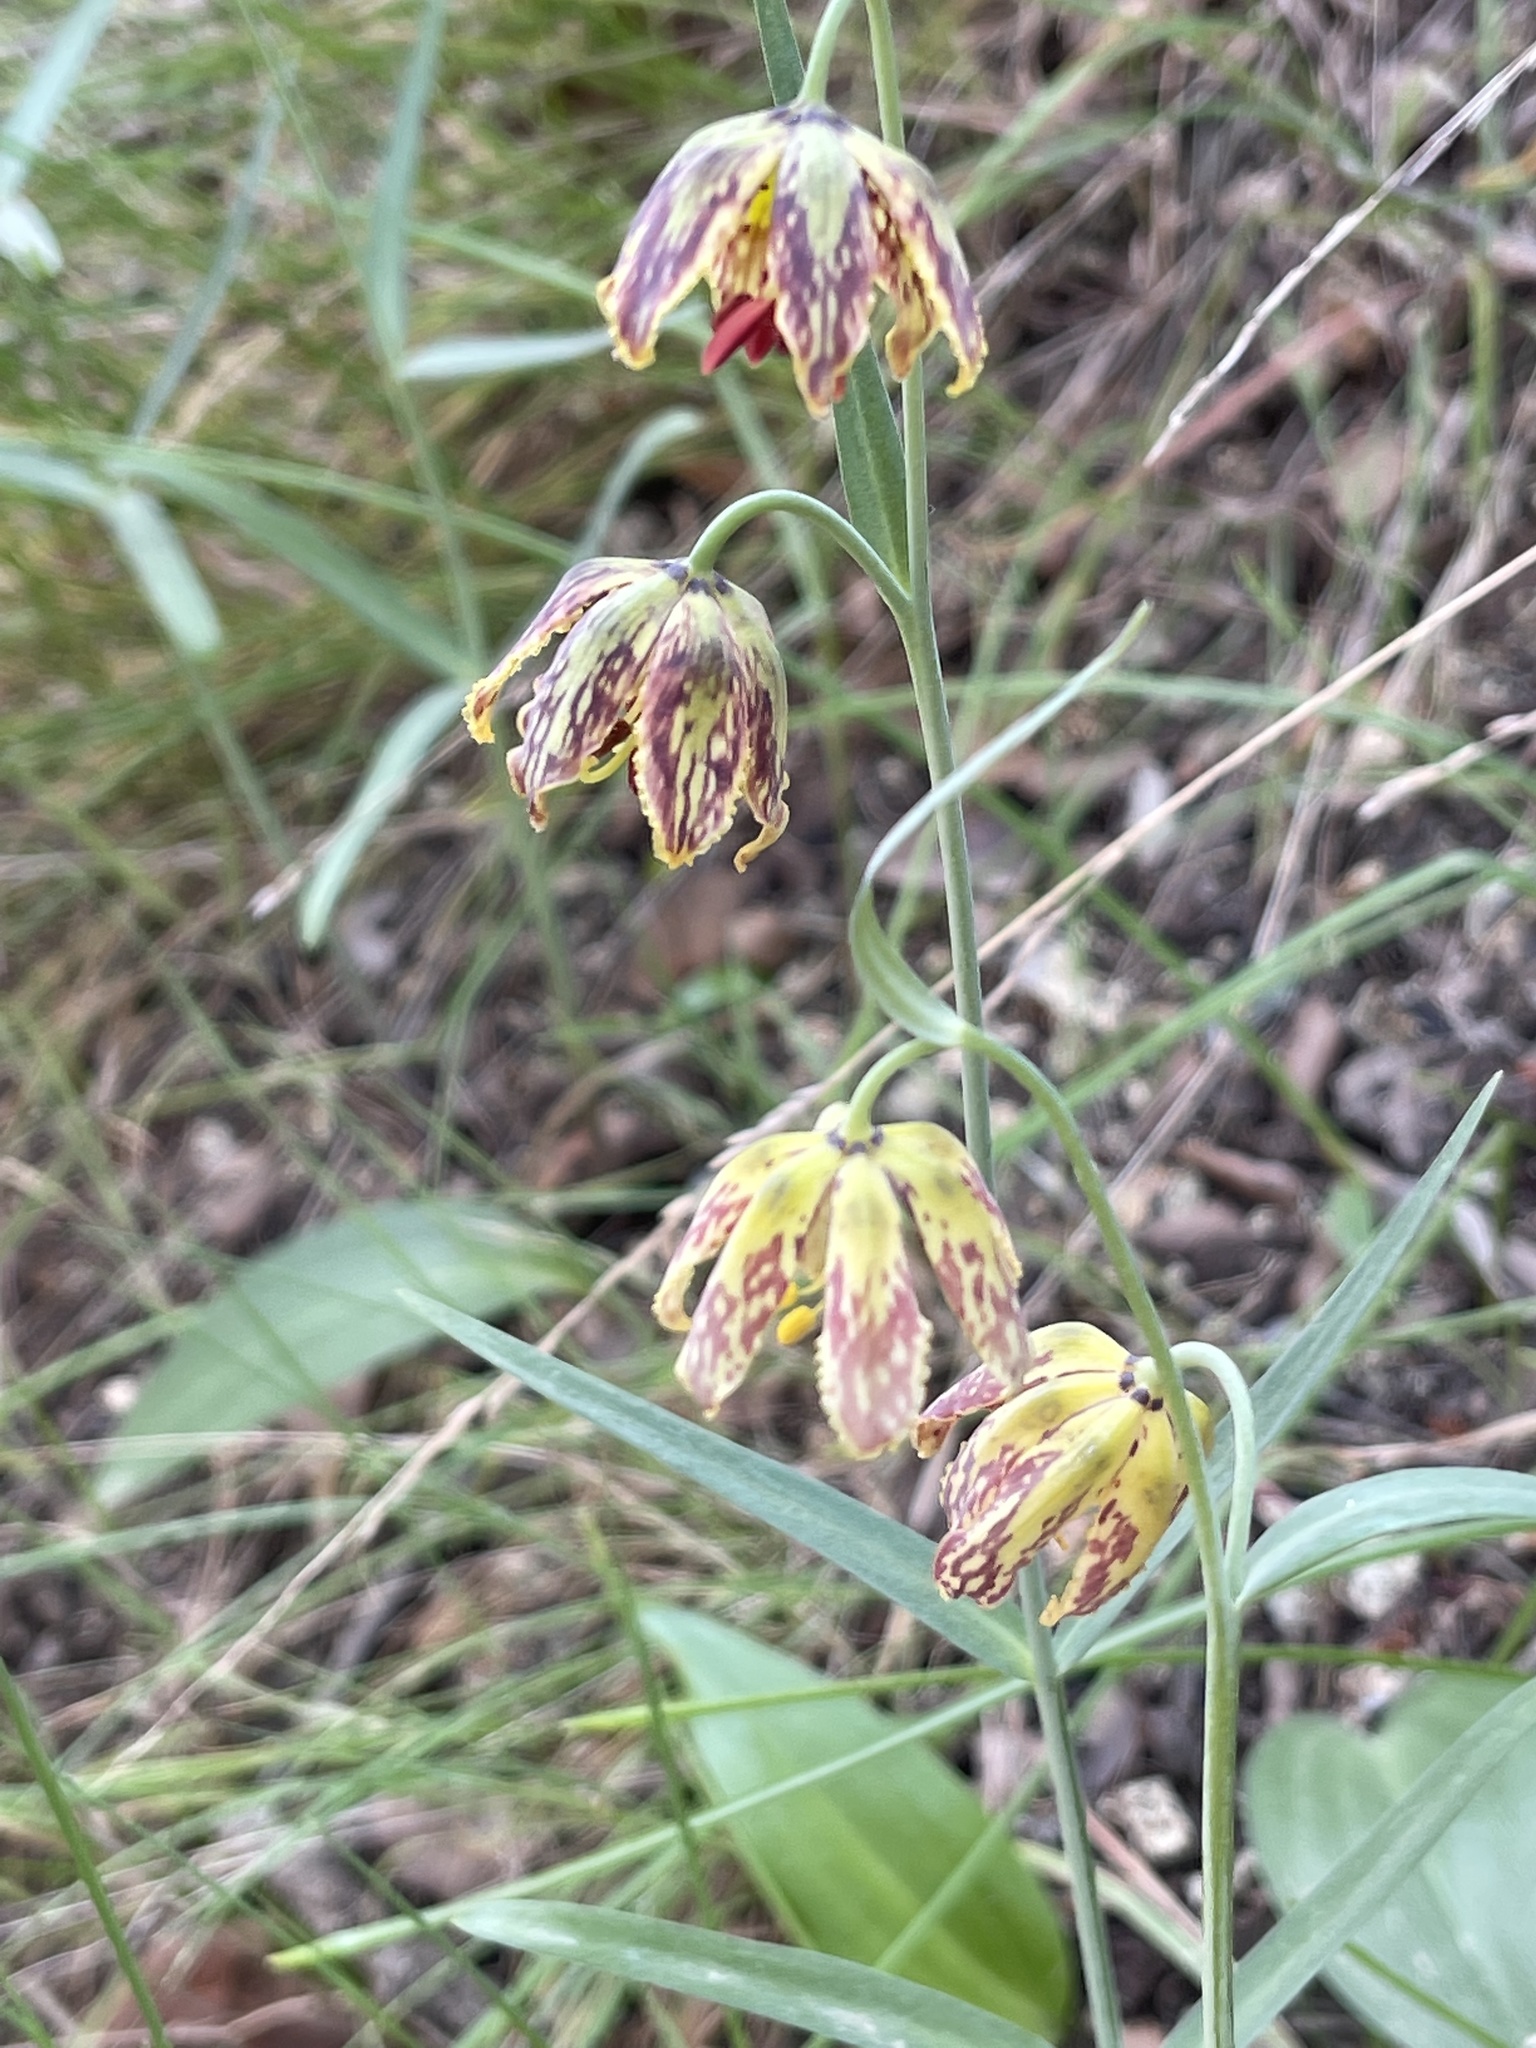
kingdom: Plantae
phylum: Tracheophyta
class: Liliopsida
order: Liliales
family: Liliaceae
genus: Fritillaria
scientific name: Fritillaria affinis
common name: Ojai fritillary
